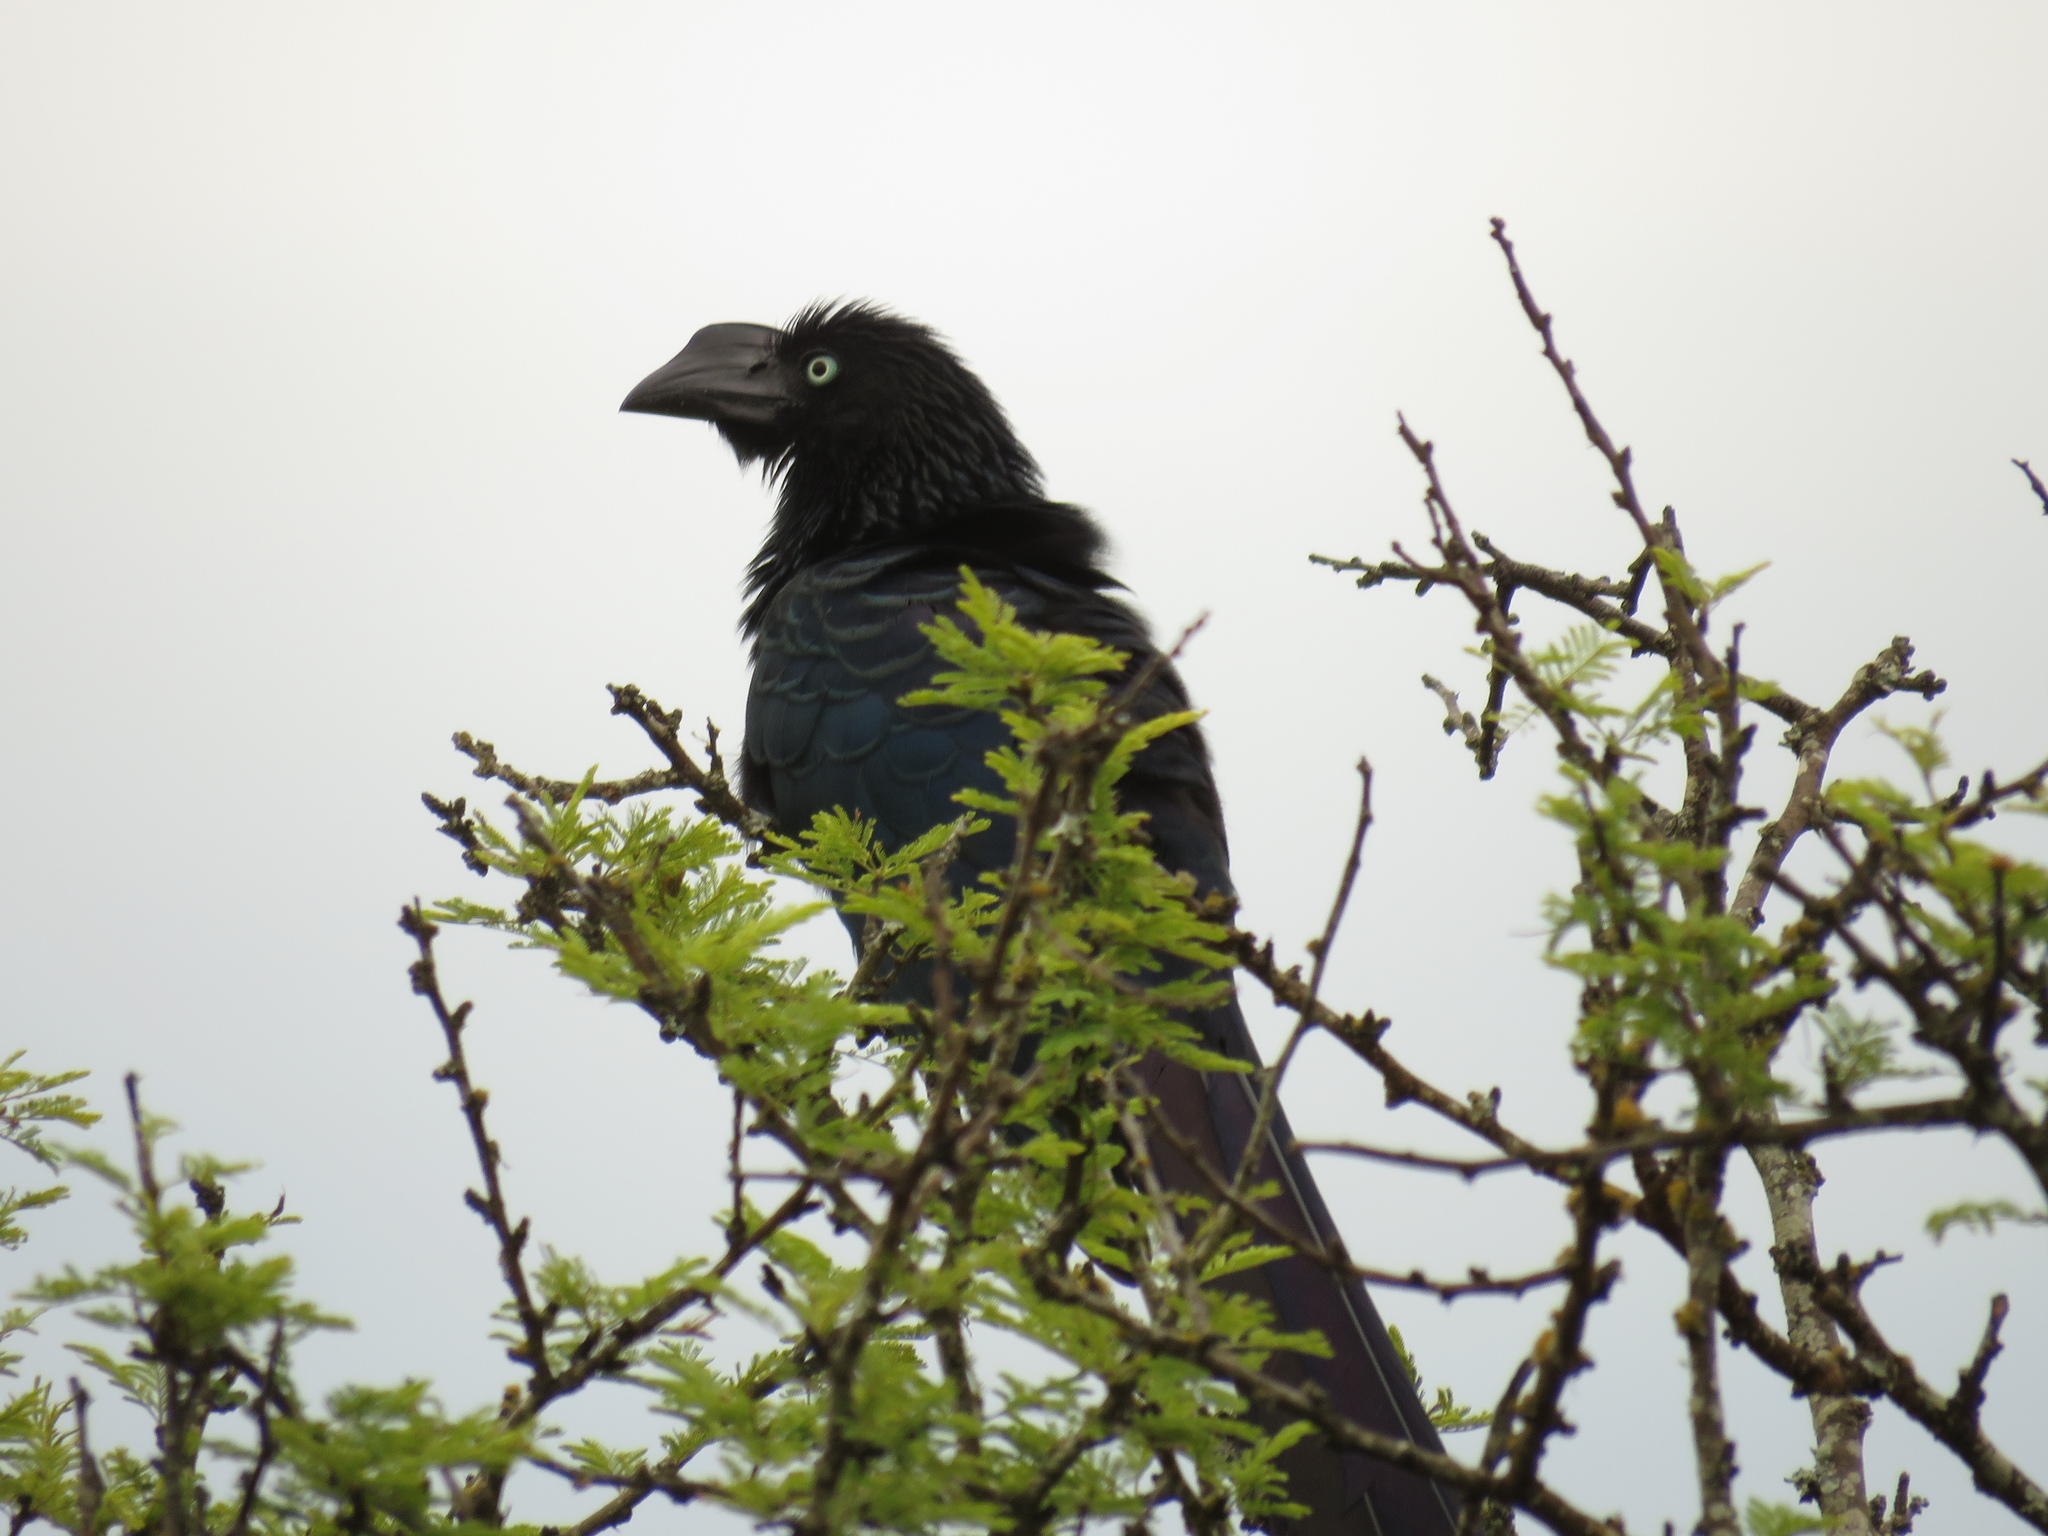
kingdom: Animalia
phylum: Chordata
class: Aves
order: Cuculiformes
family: Cuculidae
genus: Crotophaga
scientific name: Crotophaga major
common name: Greater ani
